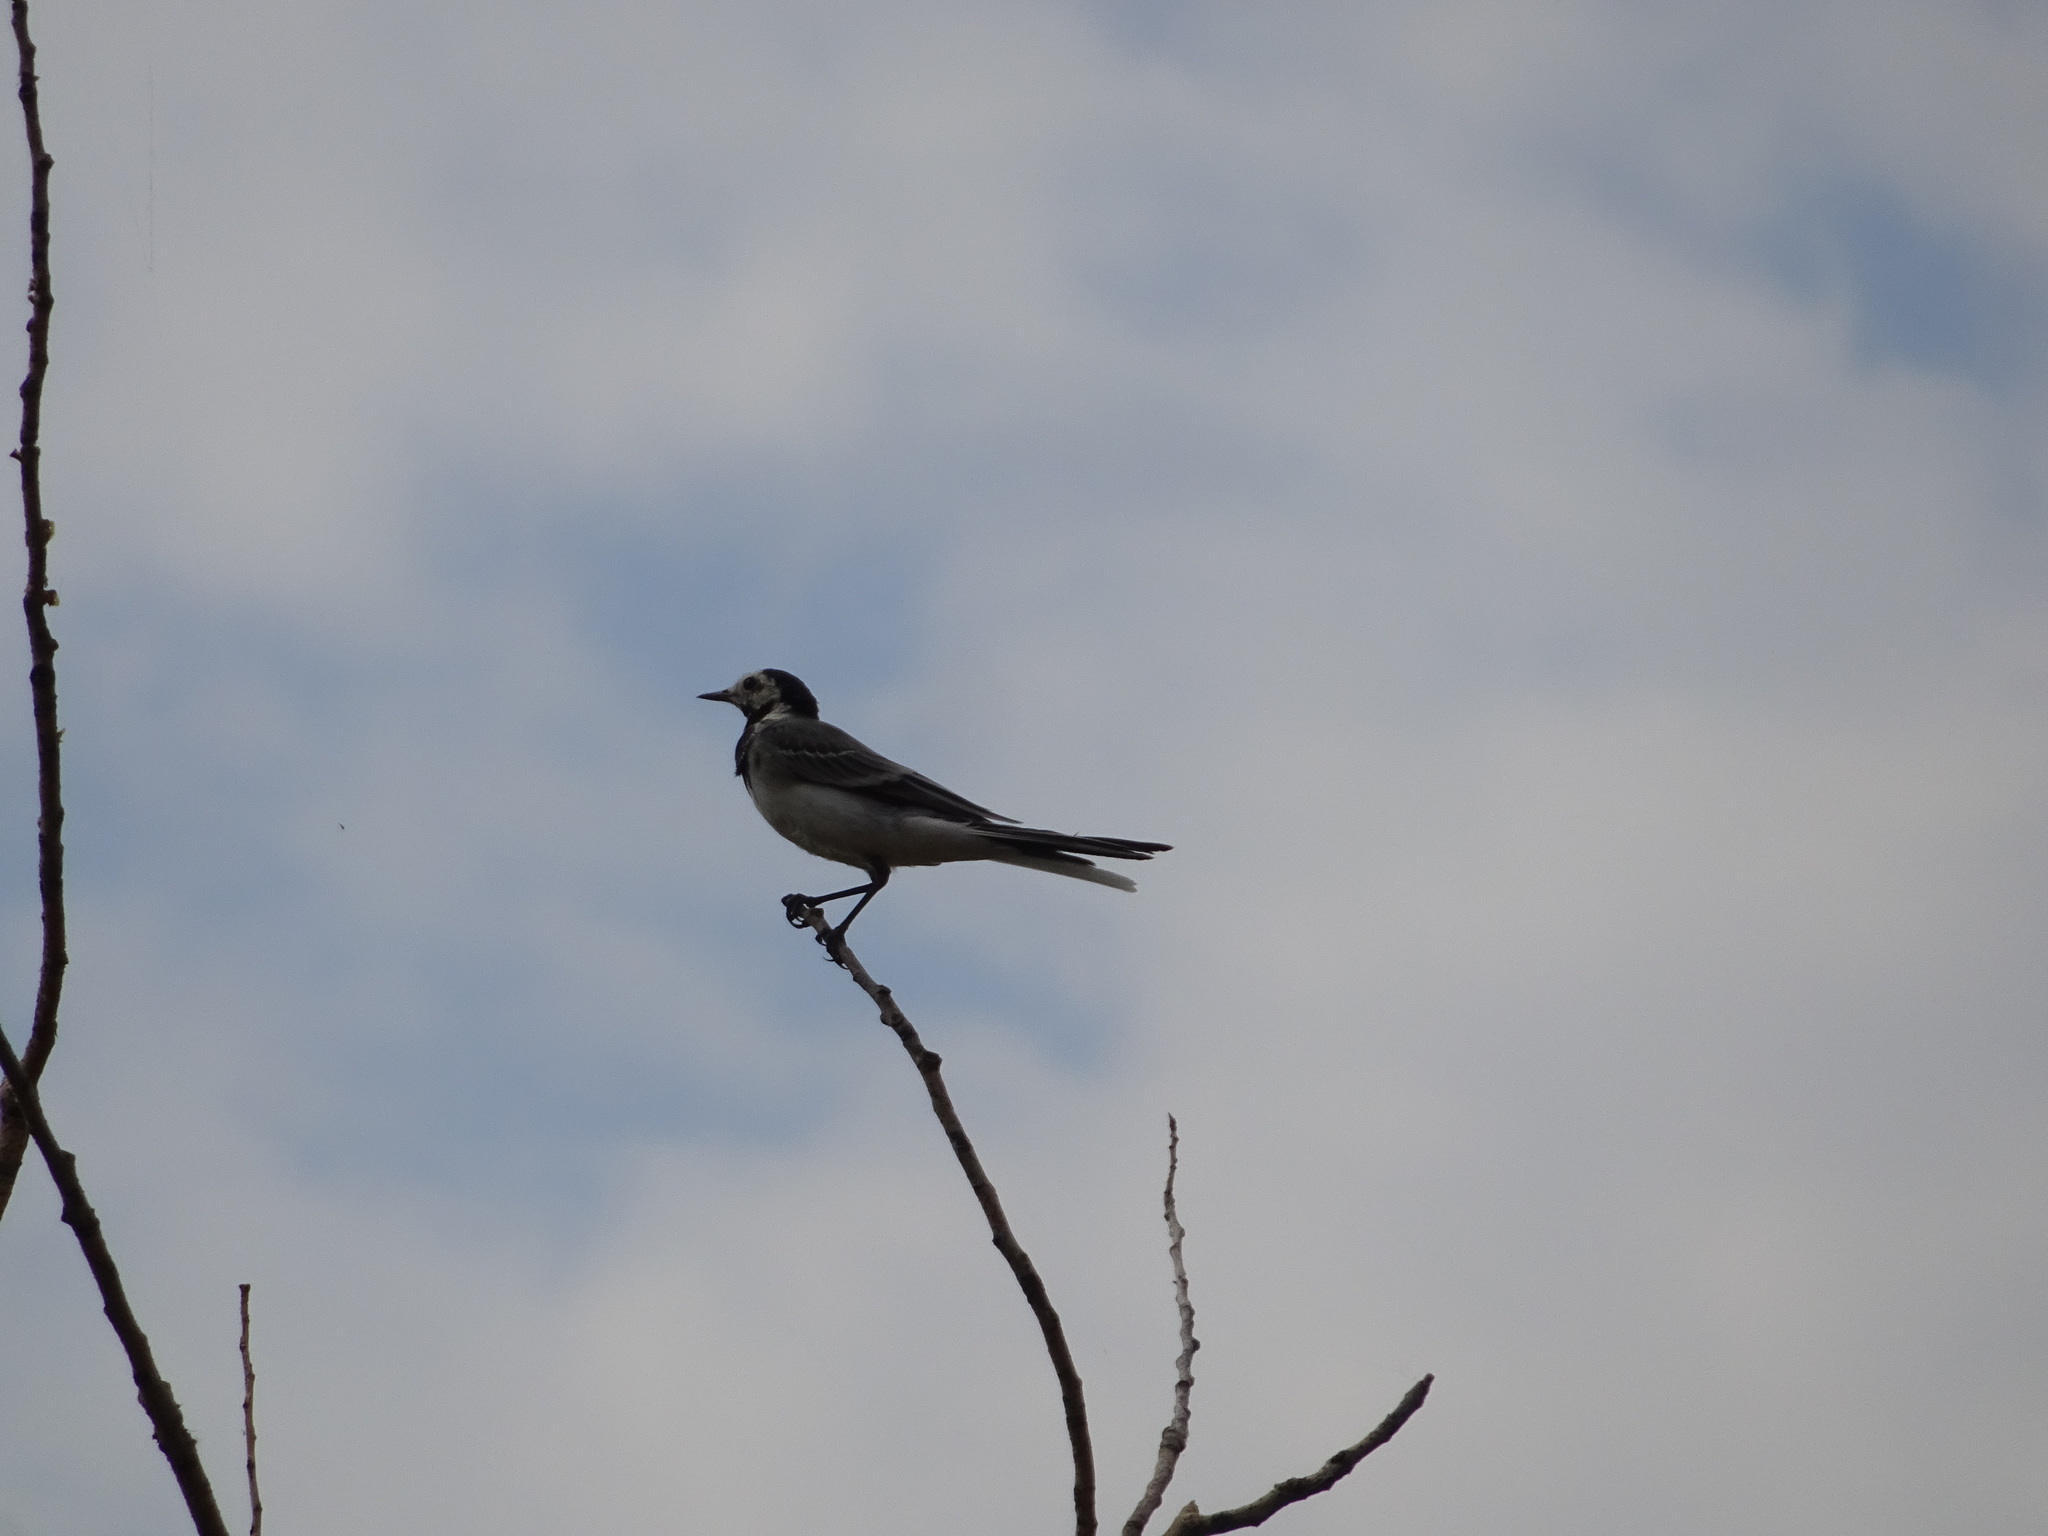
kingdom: Animalia
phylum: Chordata
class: Aves
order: Passeriformes
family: Motacillidae
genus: Motacilla
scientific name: Motacilla alba
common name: White wagtail
